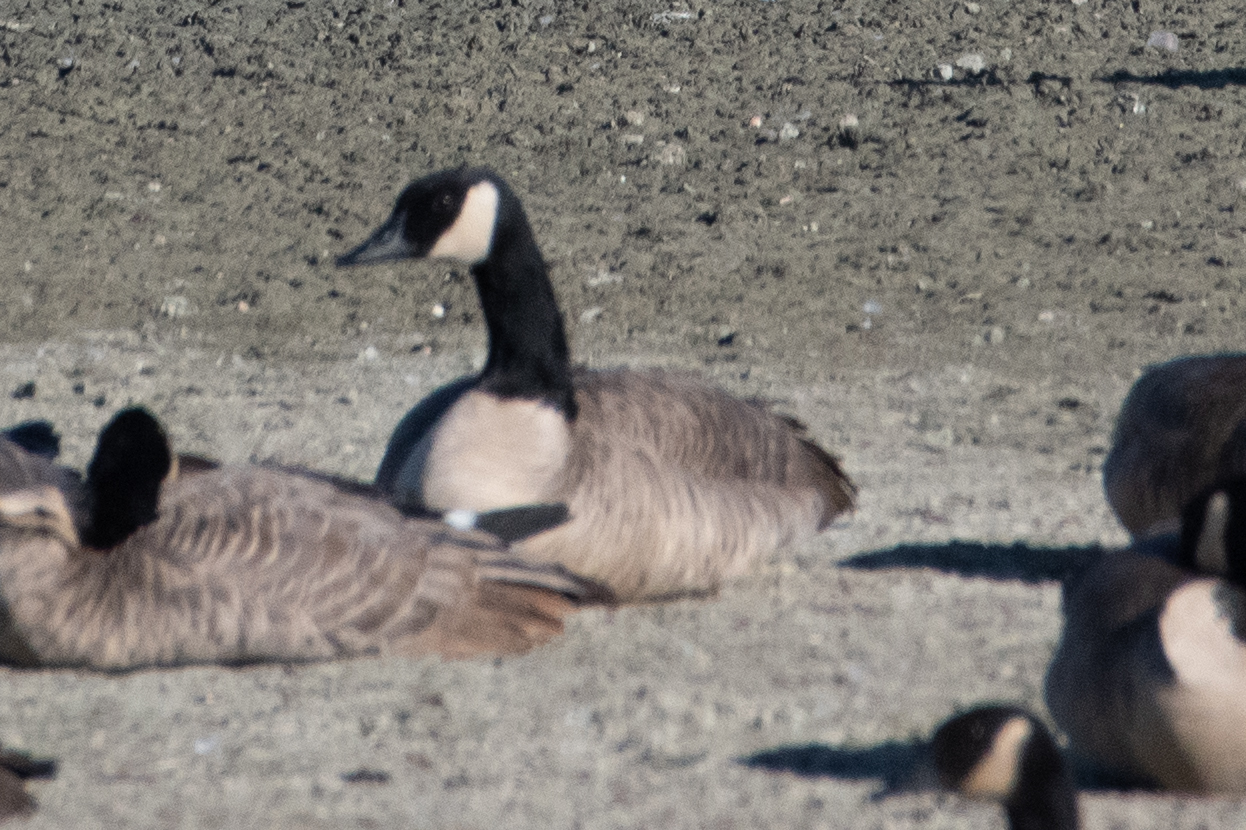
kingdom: Animalia
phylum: Chordata
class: Aves
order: Anseriformes
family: Anatidae
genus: Branta
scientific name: Branta canadensis
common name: Canada goose
